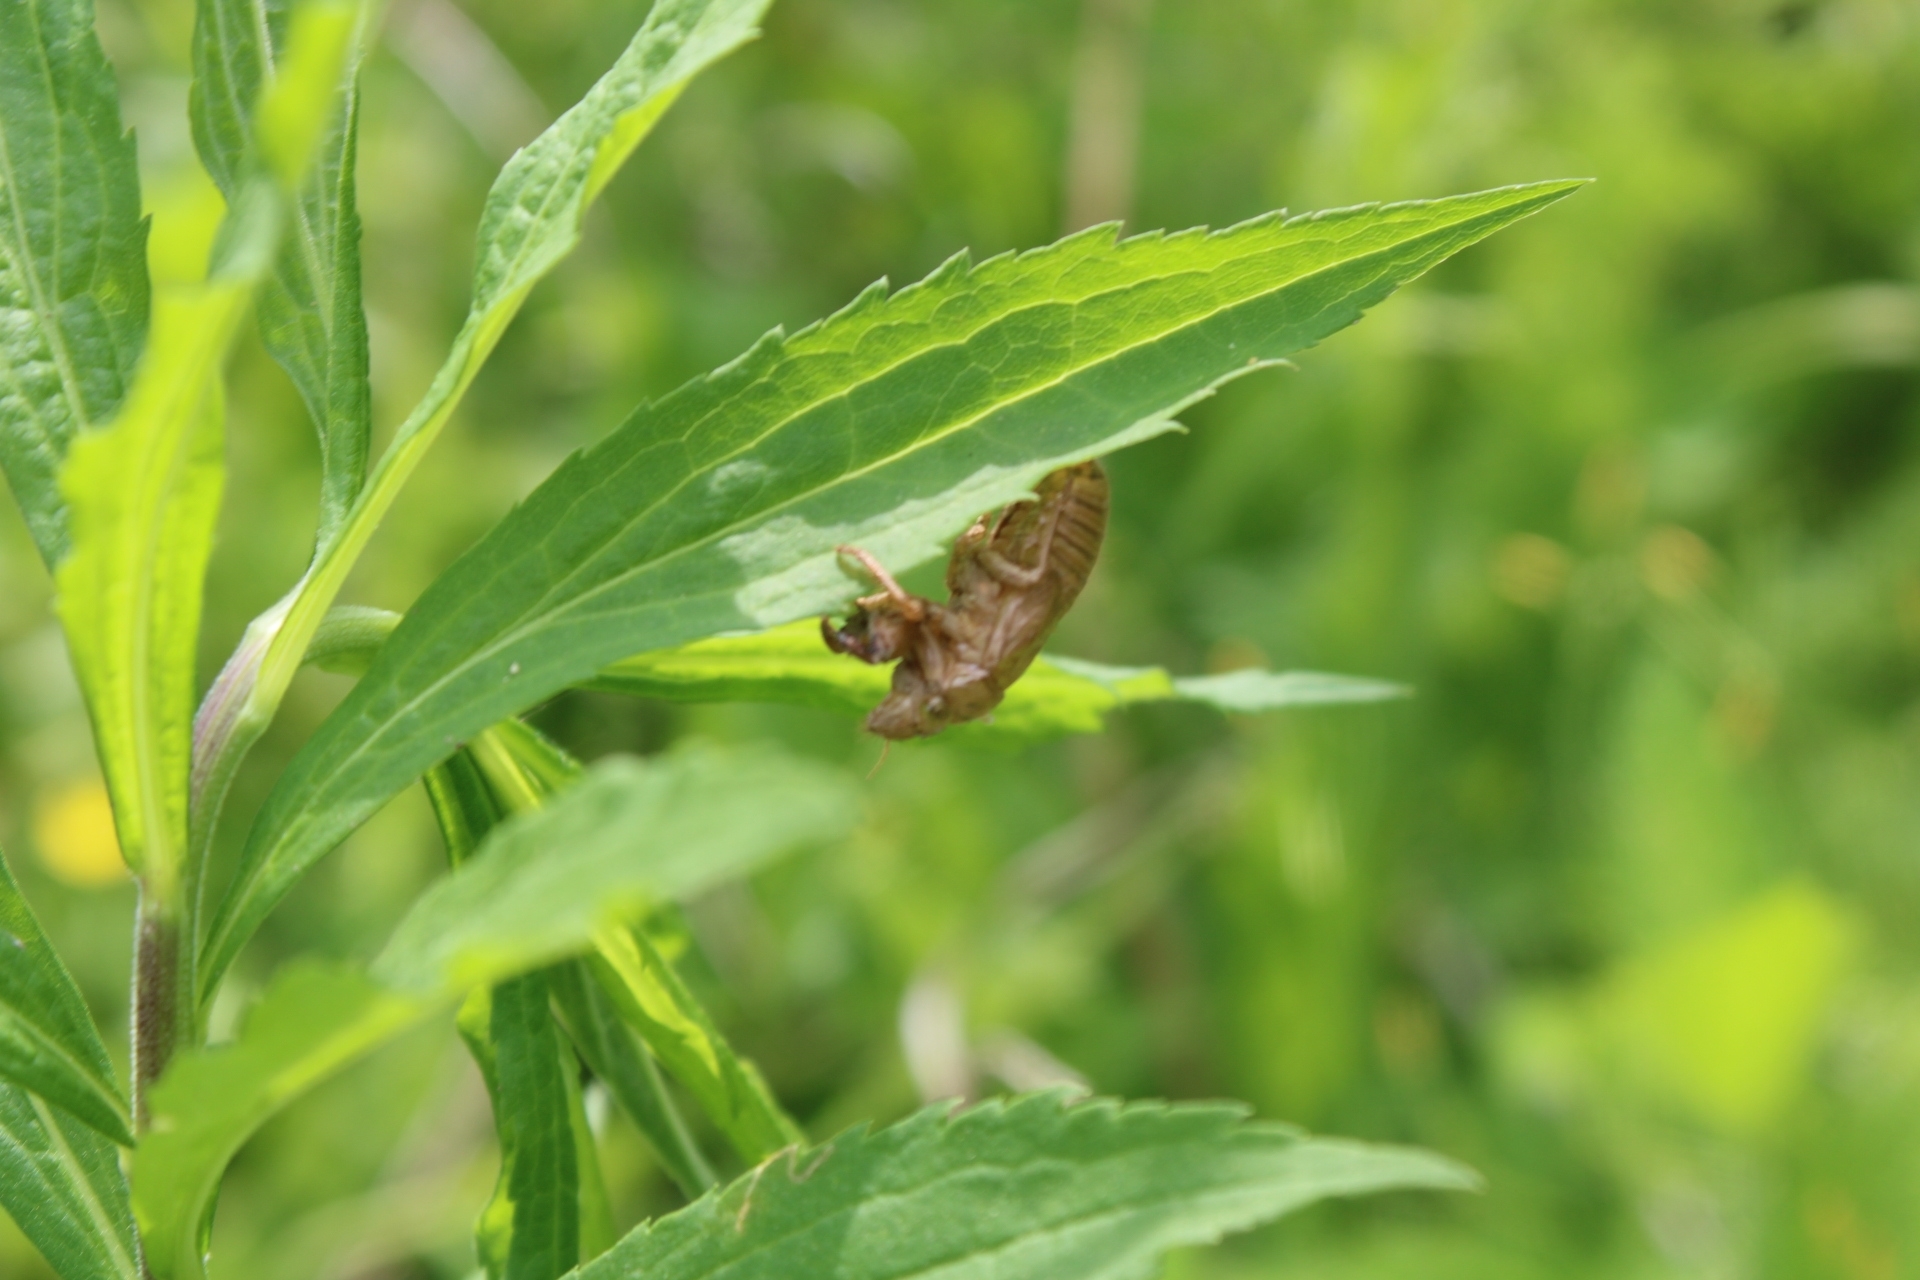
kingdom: Animalia
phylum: Arthropoda
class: Insecta
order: Hemiptera
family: Cicadidae
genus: Magicicada
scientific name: Magicicada
